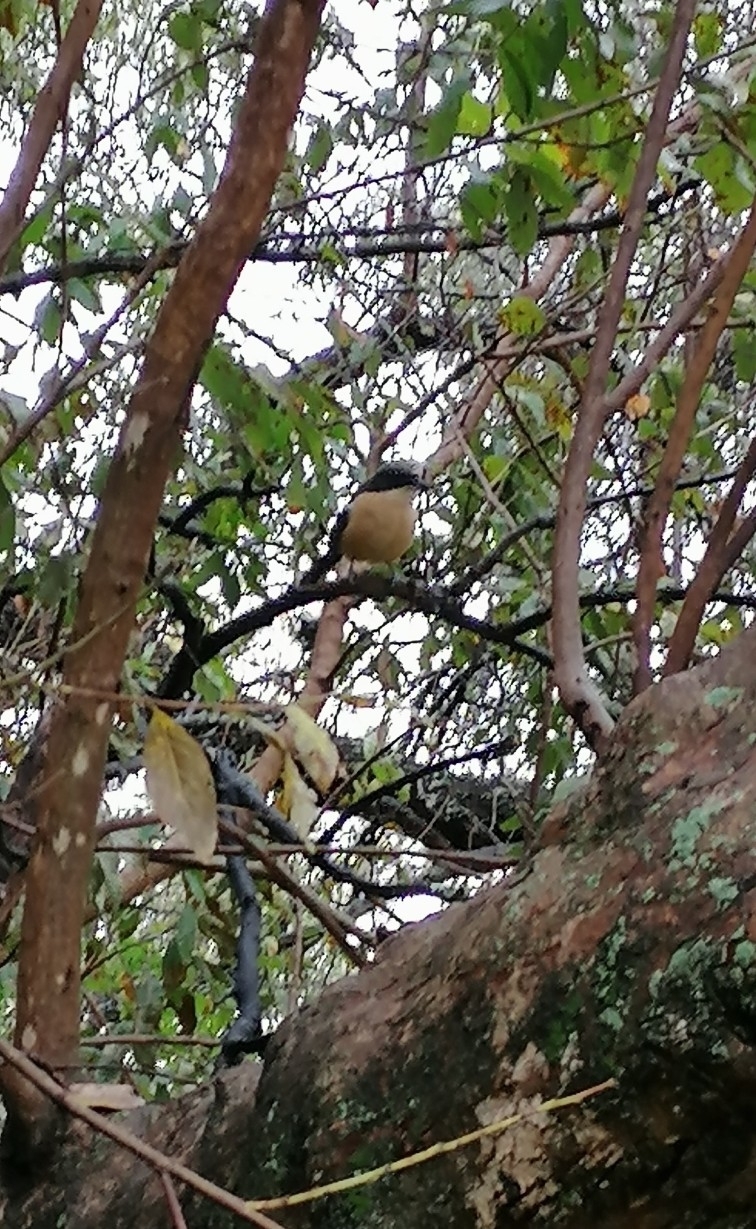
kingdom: Animalia
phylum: Chordata
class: Aves
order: Passeriformes
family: Malaconotidae
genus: Laniarius
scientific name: Laniarius ferrugineus
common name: Southern boubou
